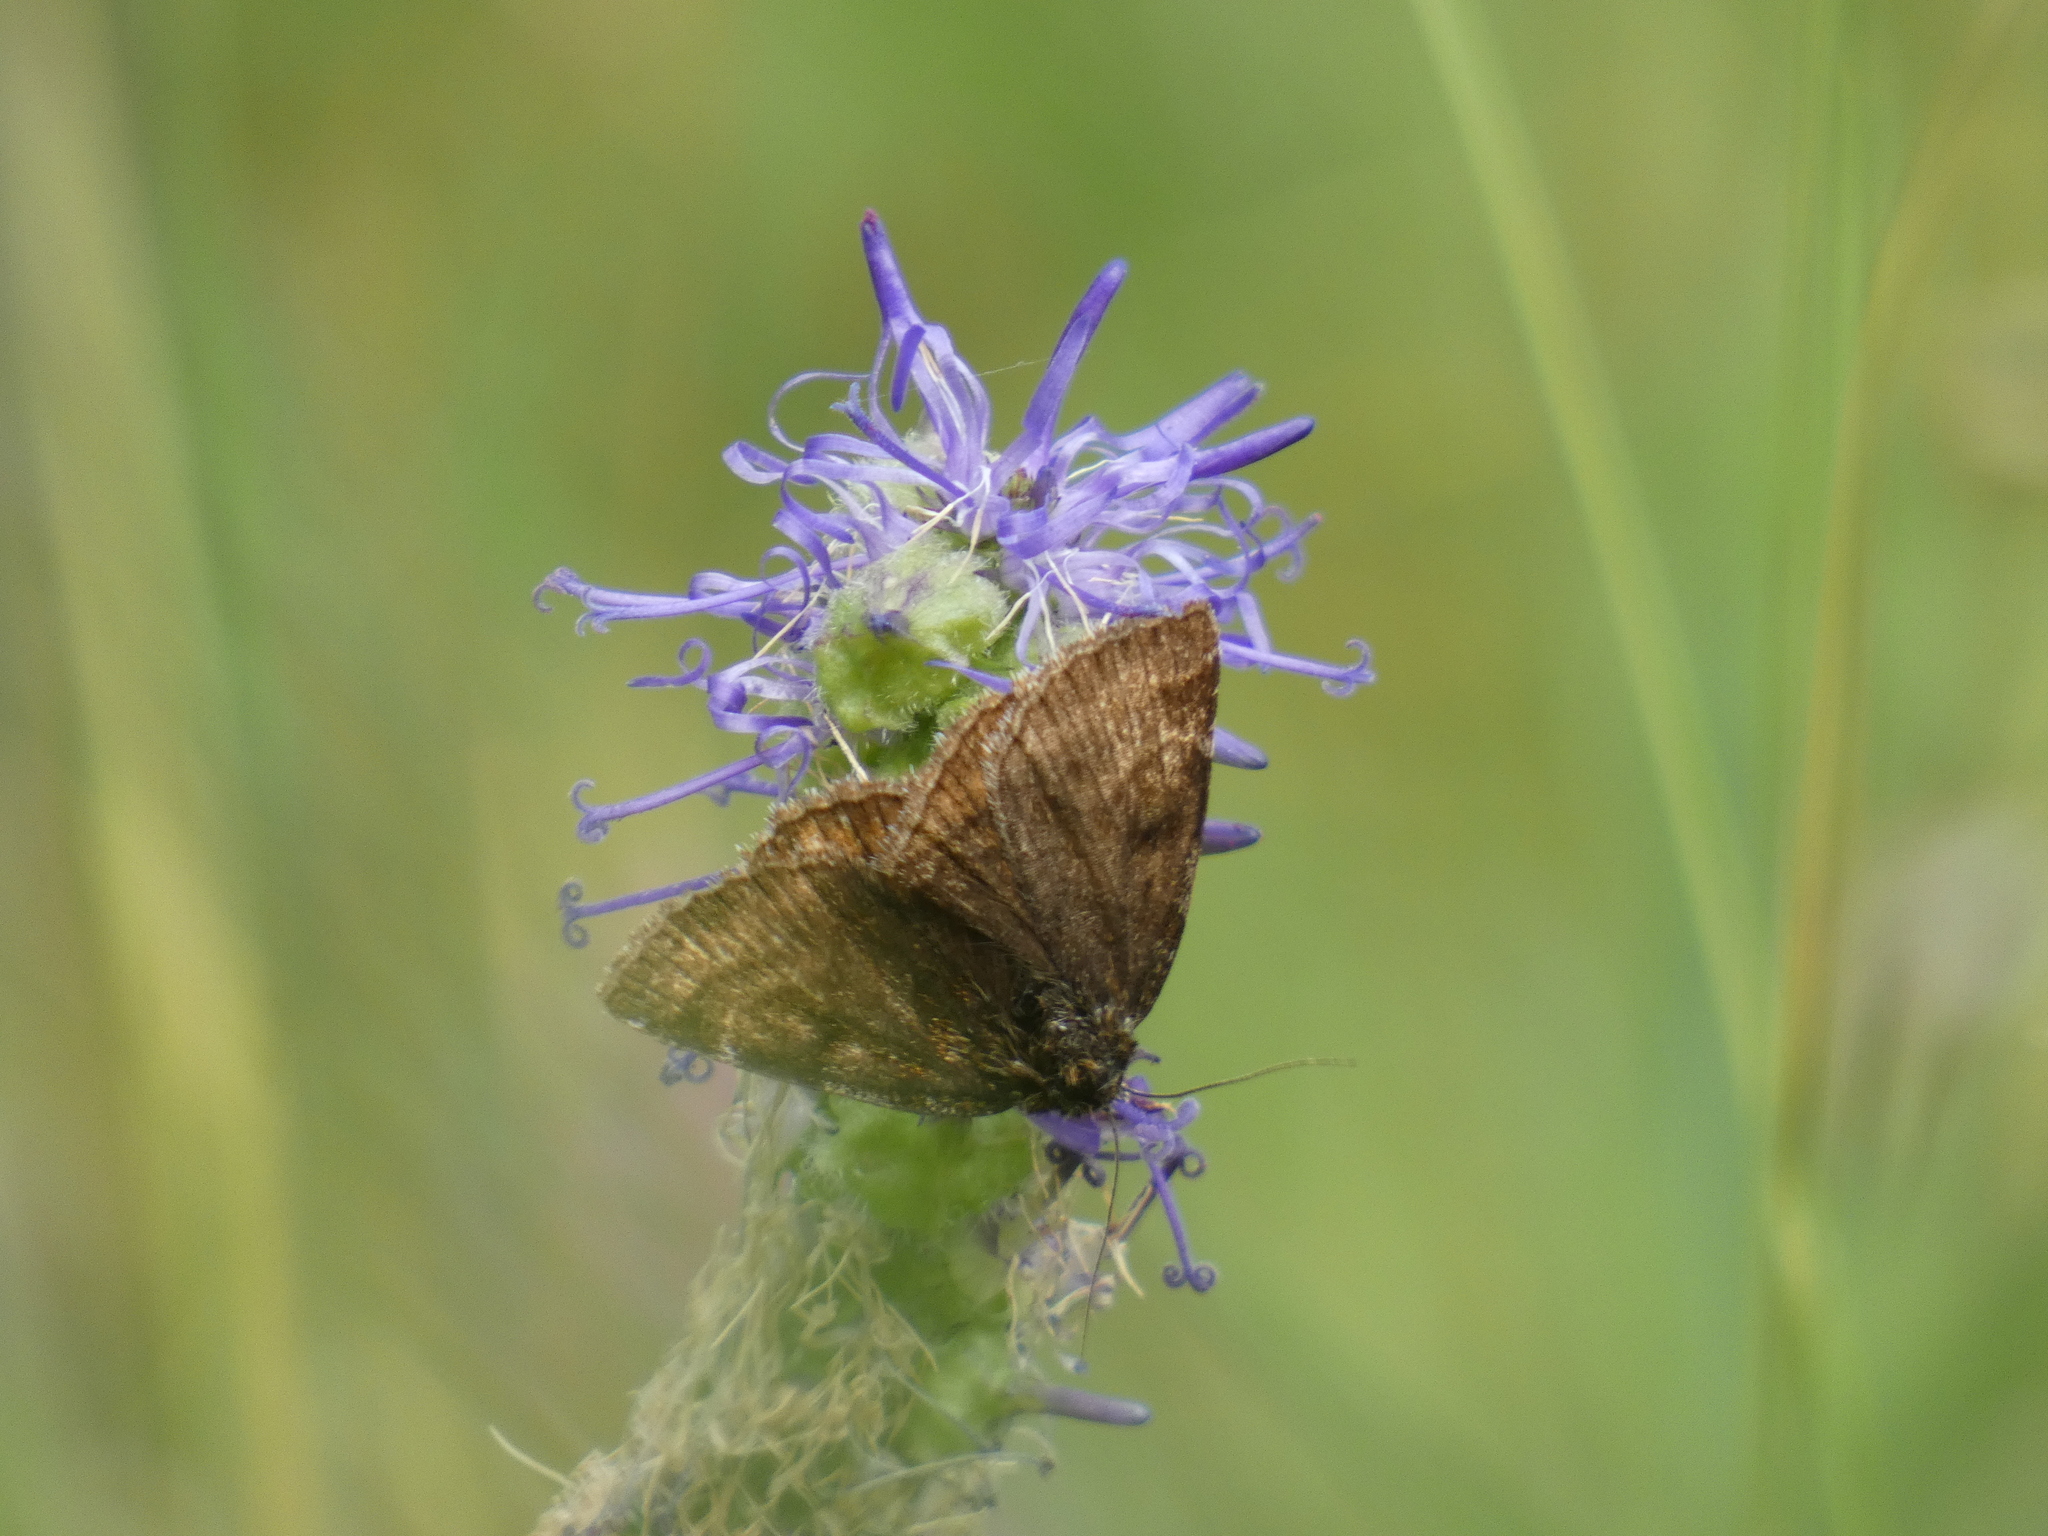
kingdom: Animalia
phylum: Arthropoda
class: Insecta
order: Lepidoptera
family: Erebidae
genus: Euclidia
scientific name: Euclidia glyphica
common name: Burnet companion
